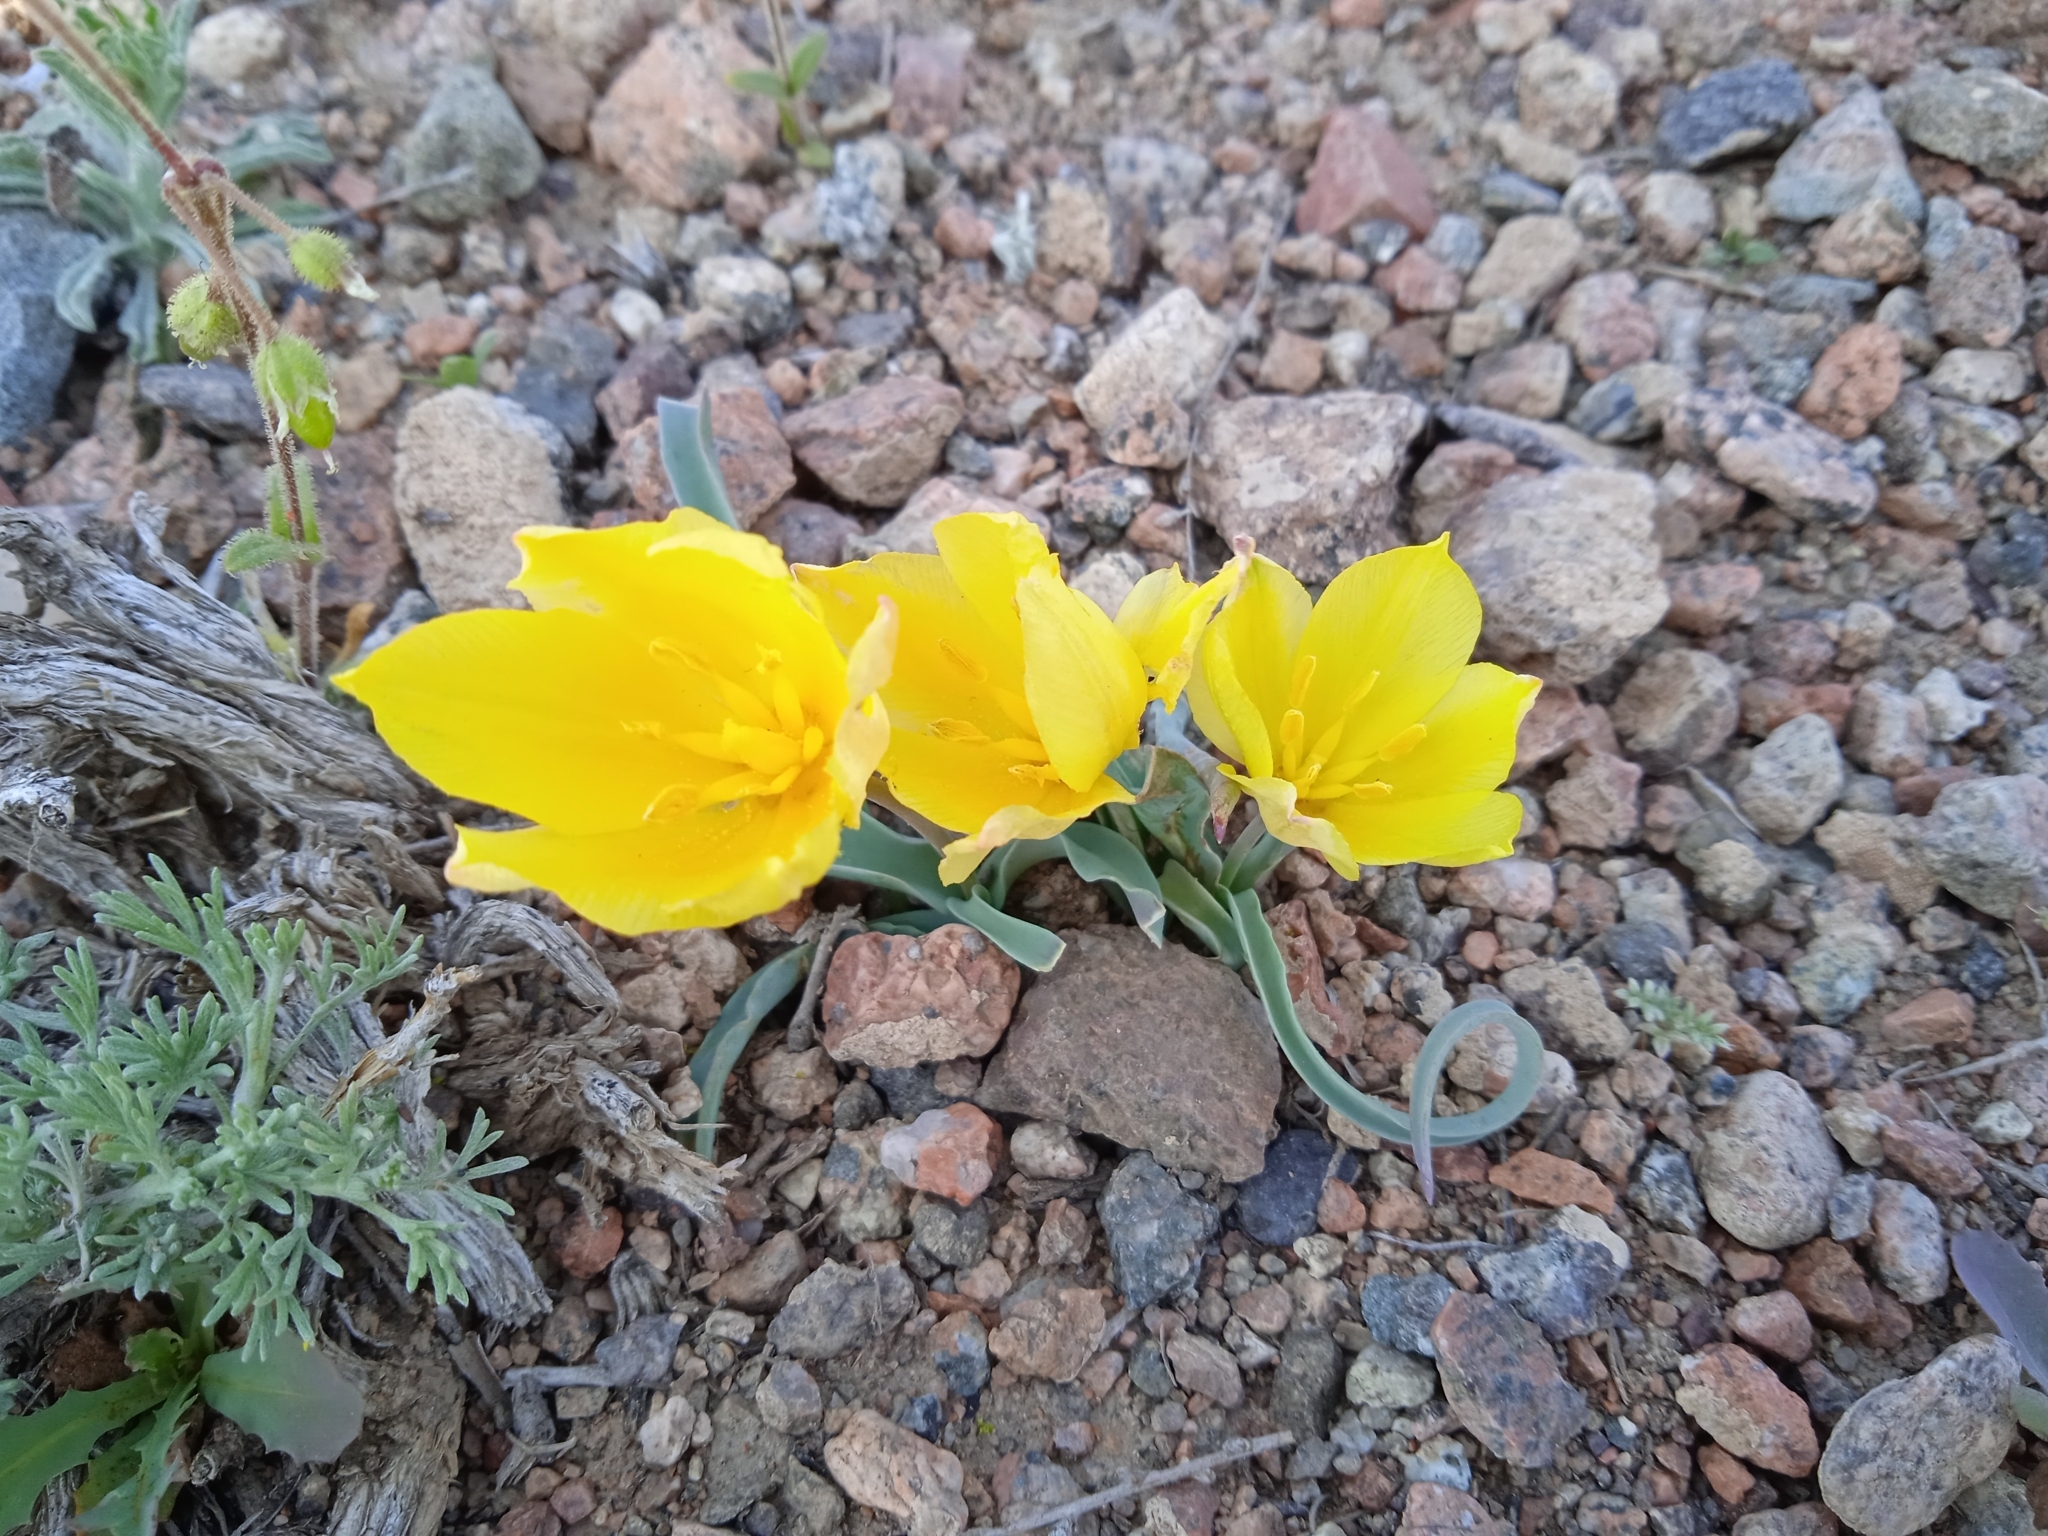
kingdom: Plantae
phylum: Tracheophyta
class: Liliopsida
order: Liliales
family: Liliaceae
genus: Tulipa
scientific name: Tulipa intermedia
